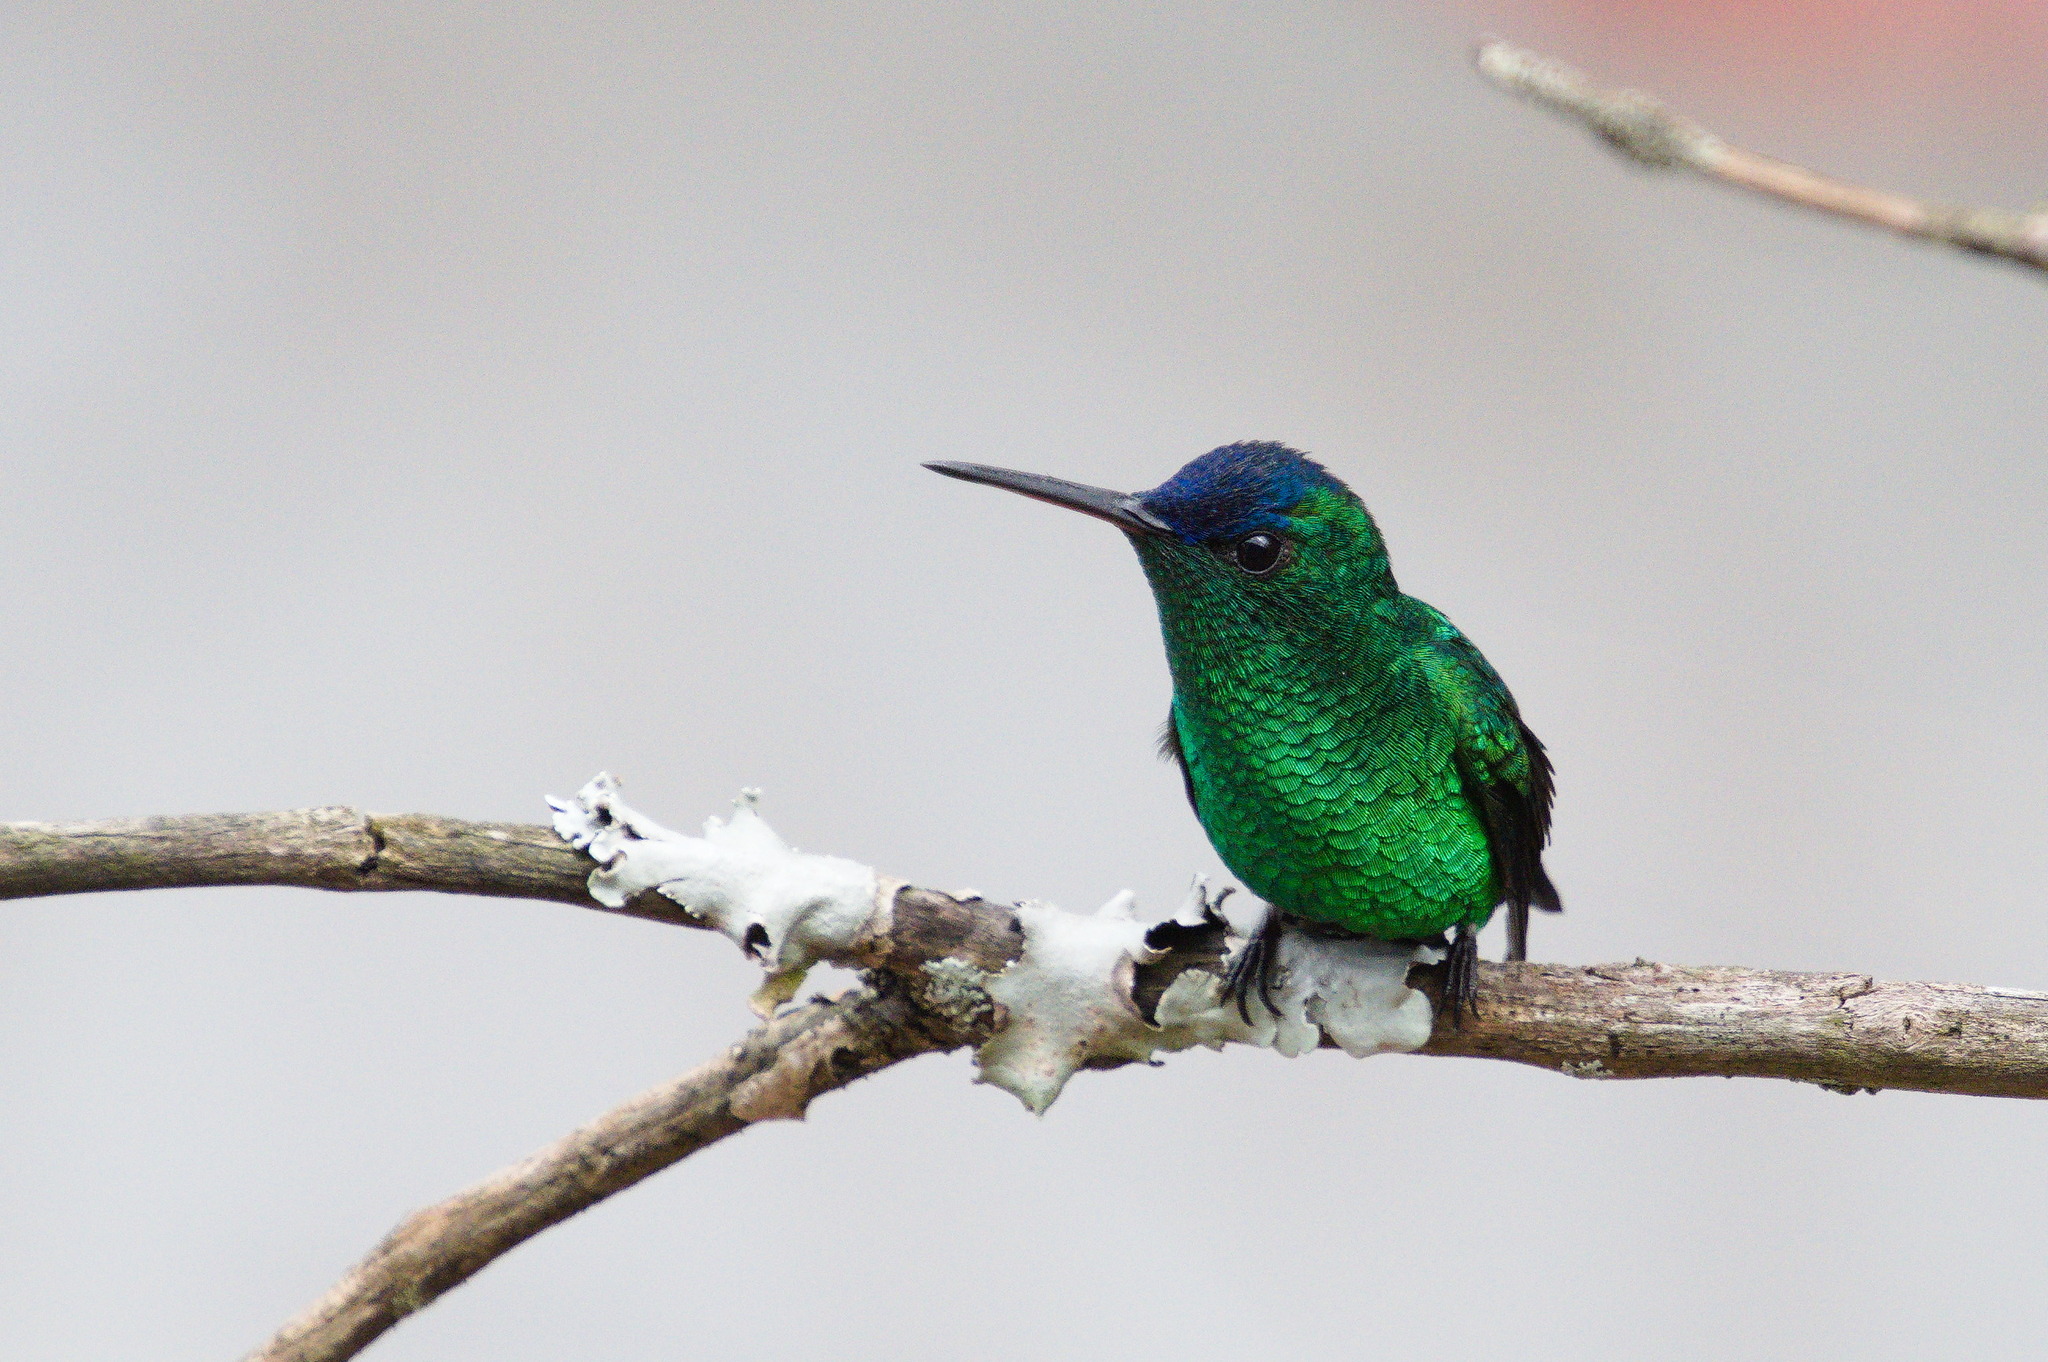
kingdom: Animalia
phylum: Chordata
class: Aves
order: Apodiformes
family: Trochilidae
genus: Saucerottia
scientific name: Saucerottia cyanifrons
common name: Indigo-capped hummingbird
